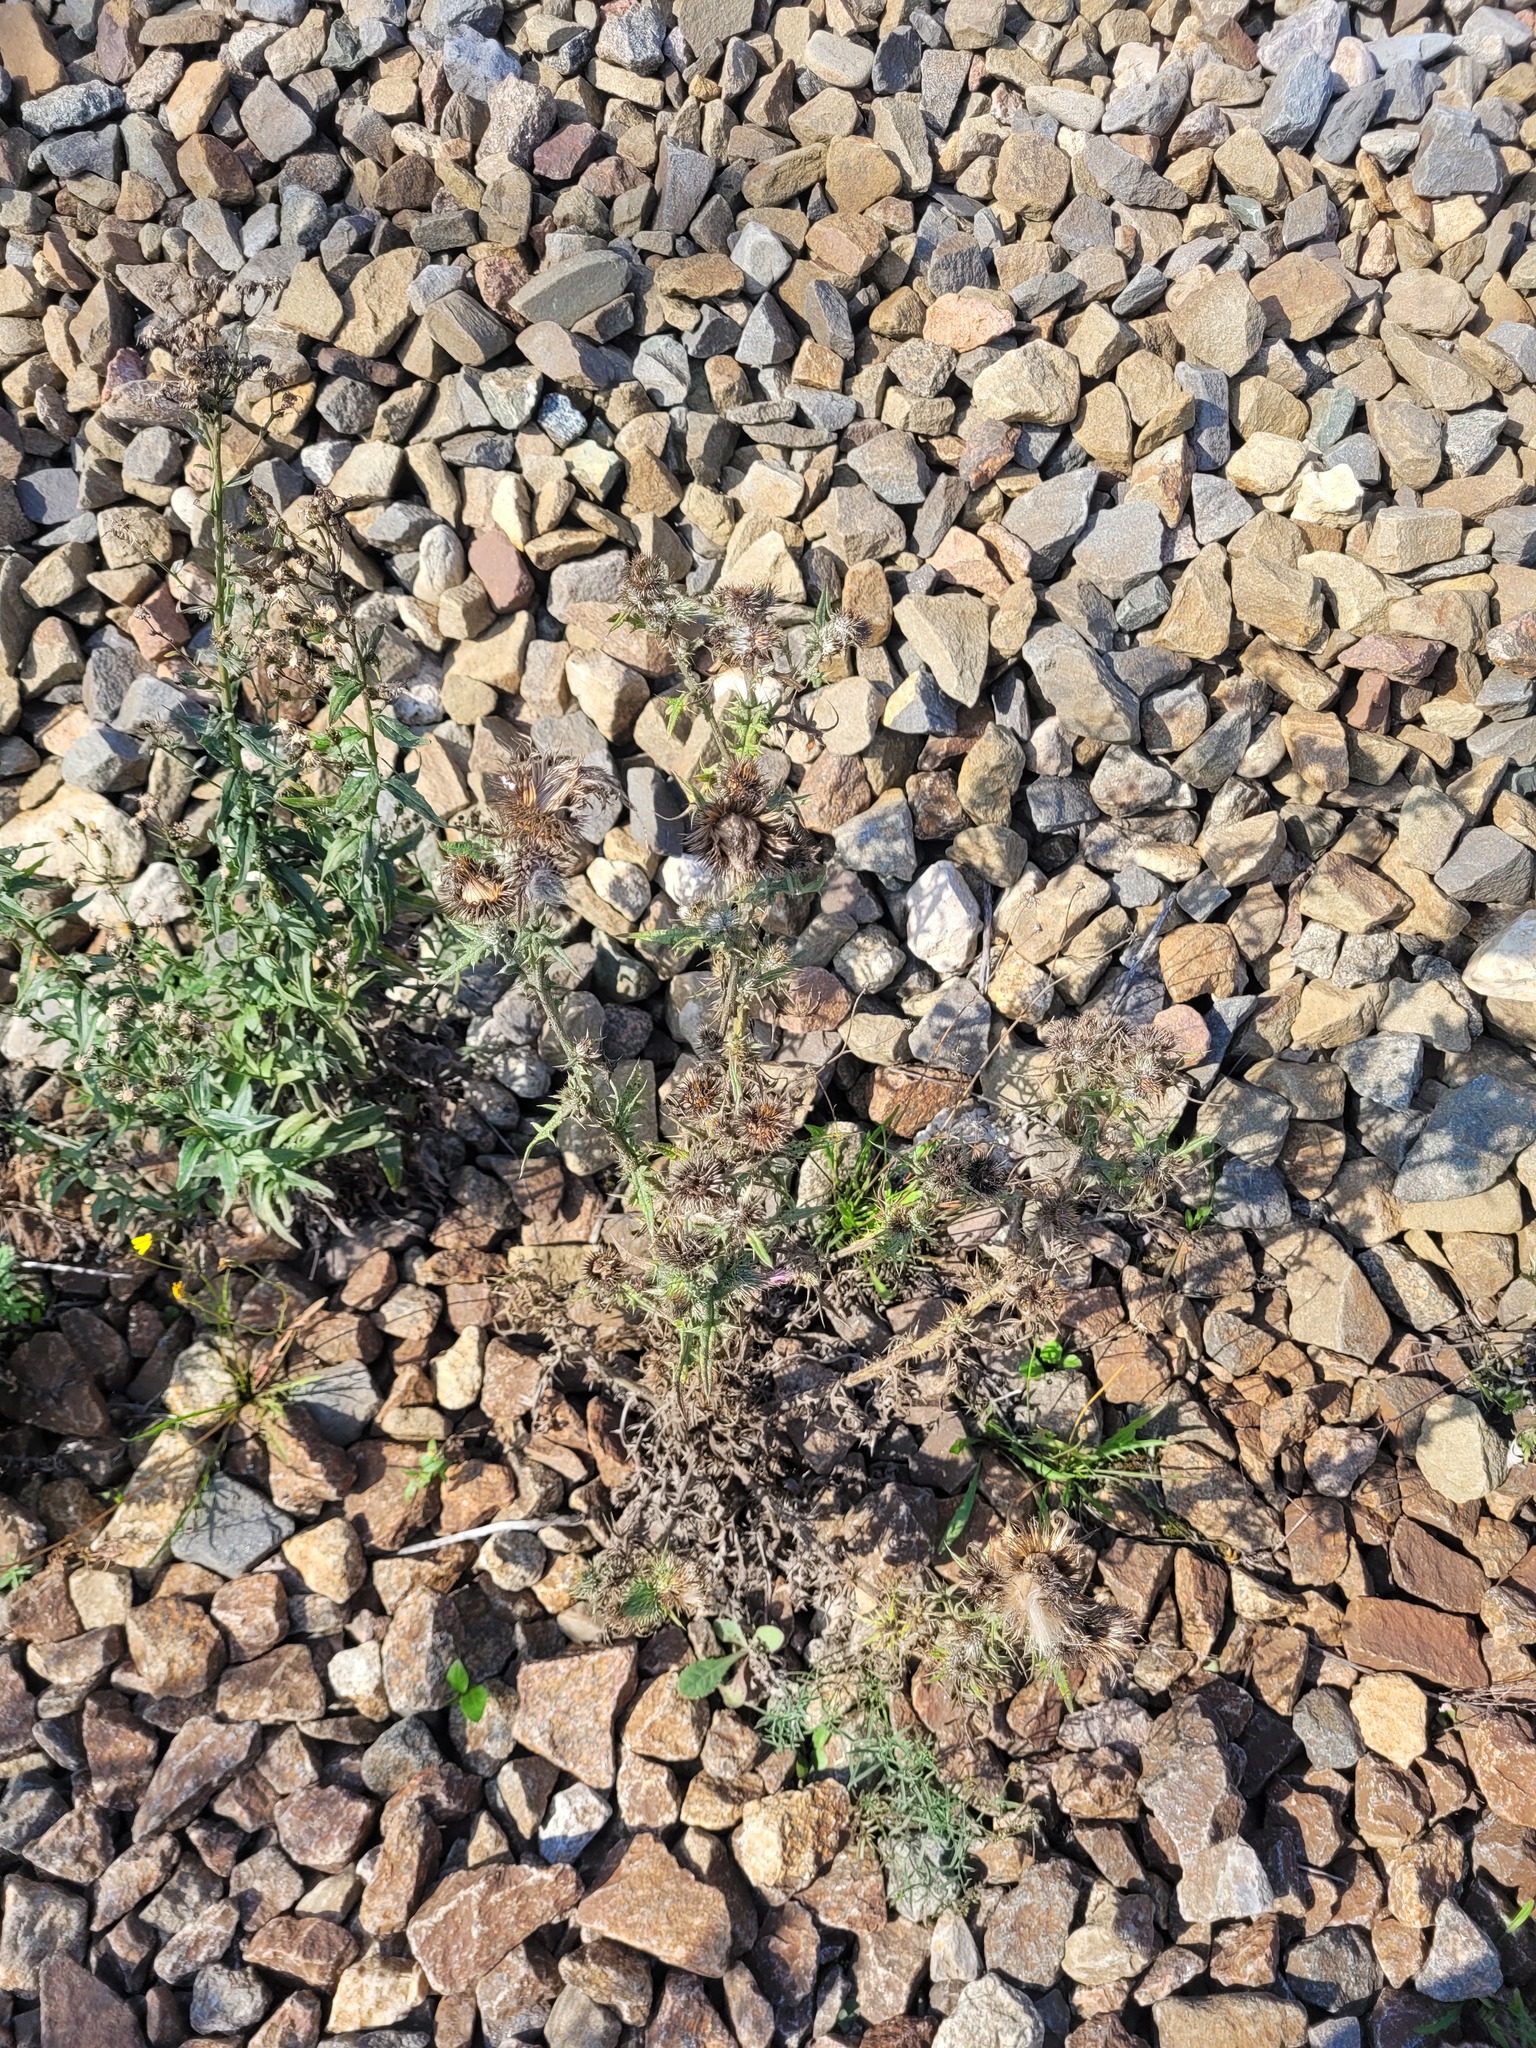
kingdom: Plantae
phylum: Tracheophyta
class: Magnoliopsida
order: Asterales
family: Asteraceae
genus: Cirsium
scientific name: Cirsium vulgare
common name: Bull thistle
